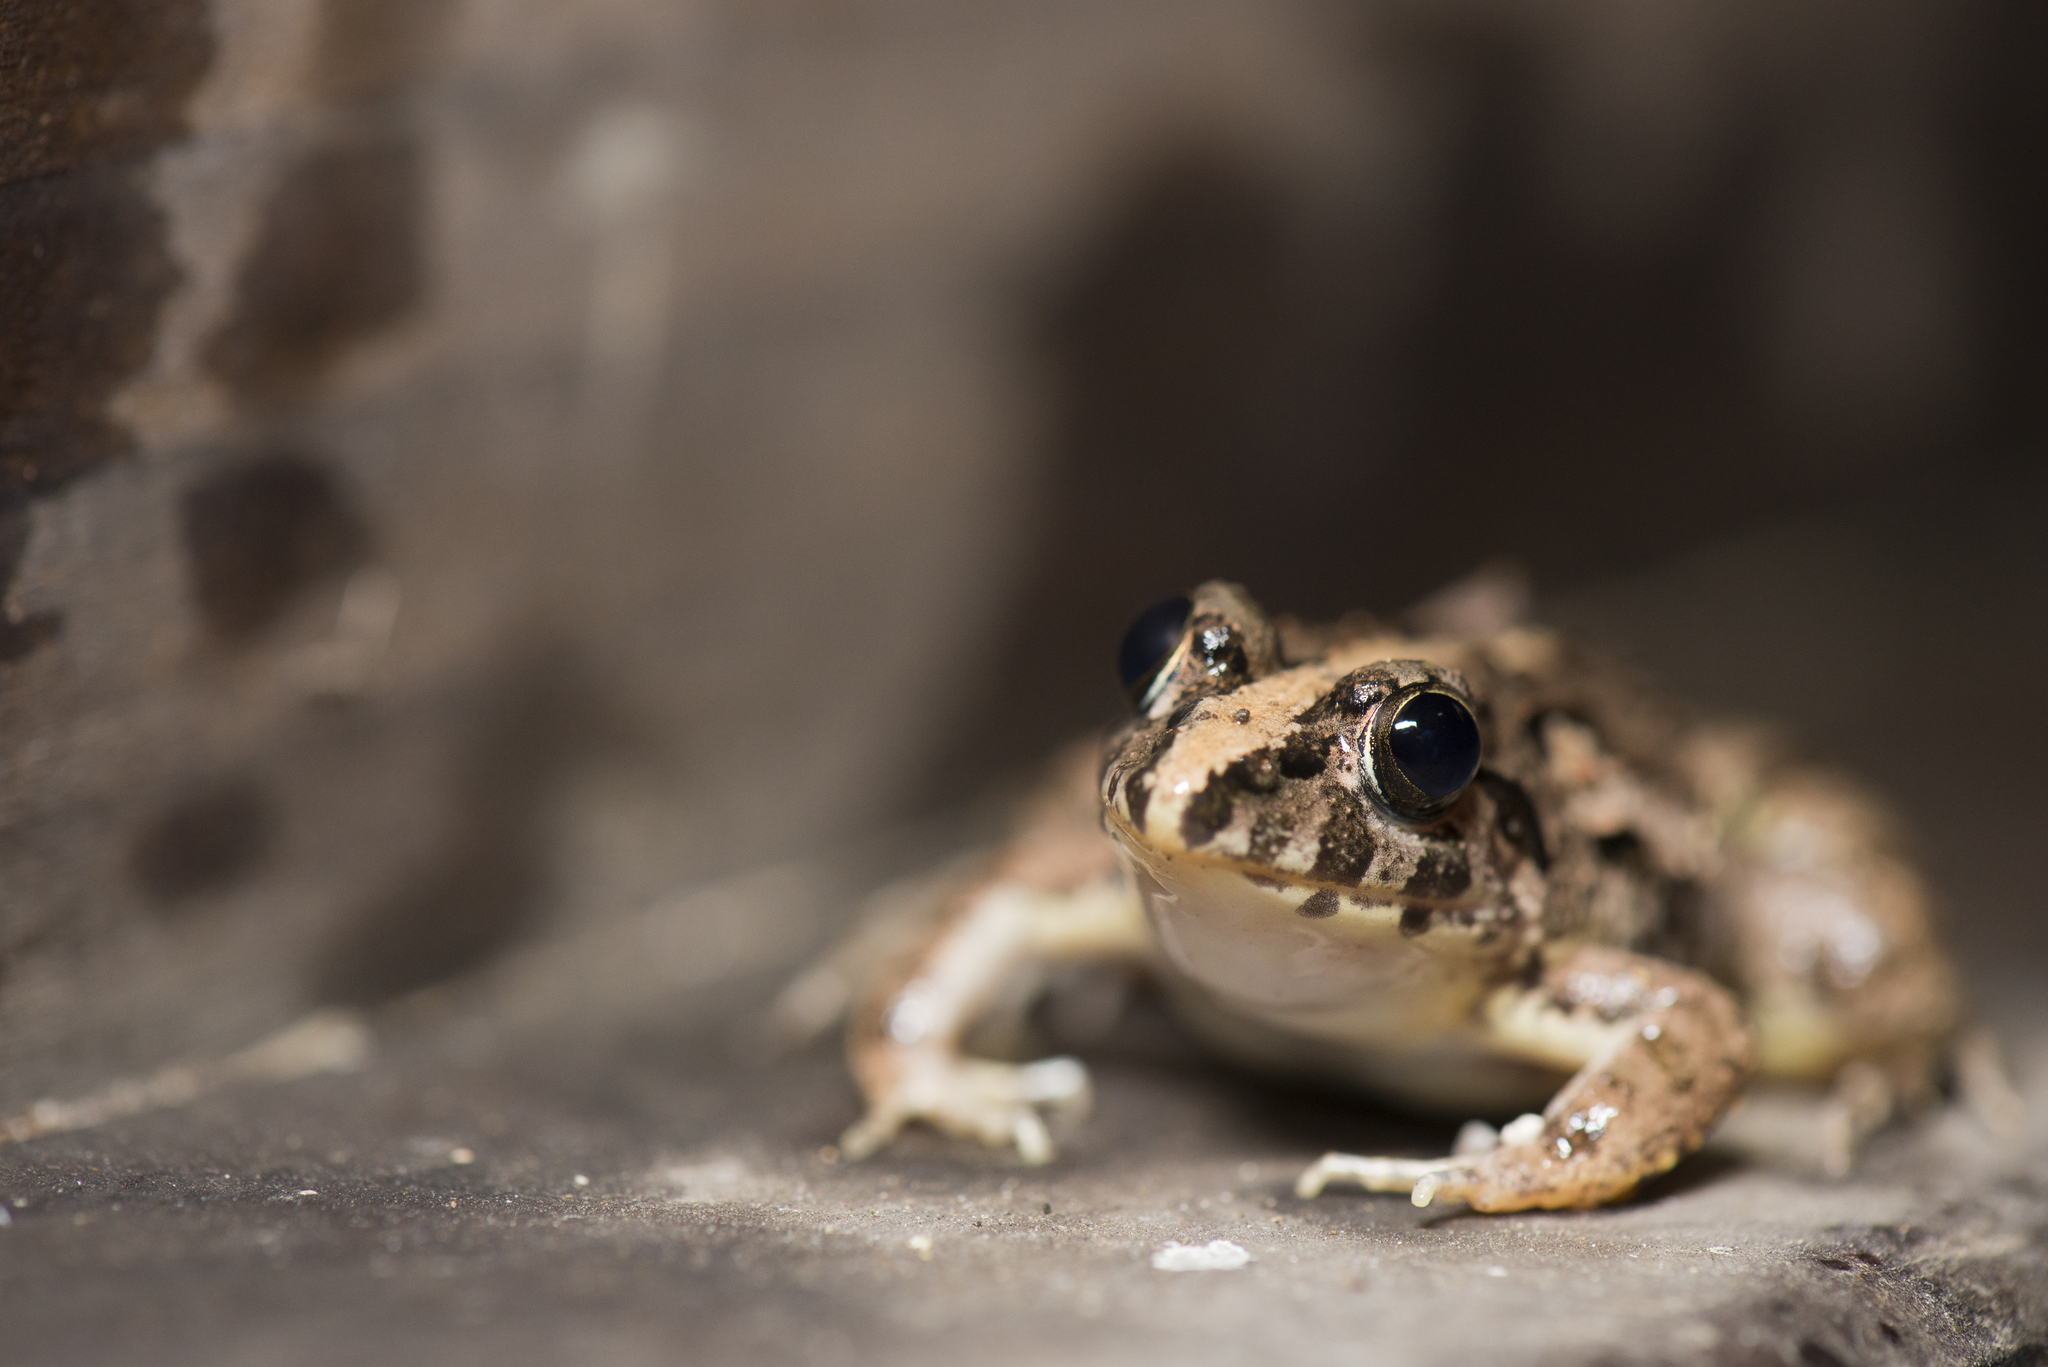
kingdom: Animalia
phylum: Chordata
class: Amphibia
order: Anura
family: Dicroglossidae
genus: Fejervarya
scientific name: Fejervarya limnocharis
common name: Asian grass frog/common pond frog/field frog/grass frog/indian rice frog
